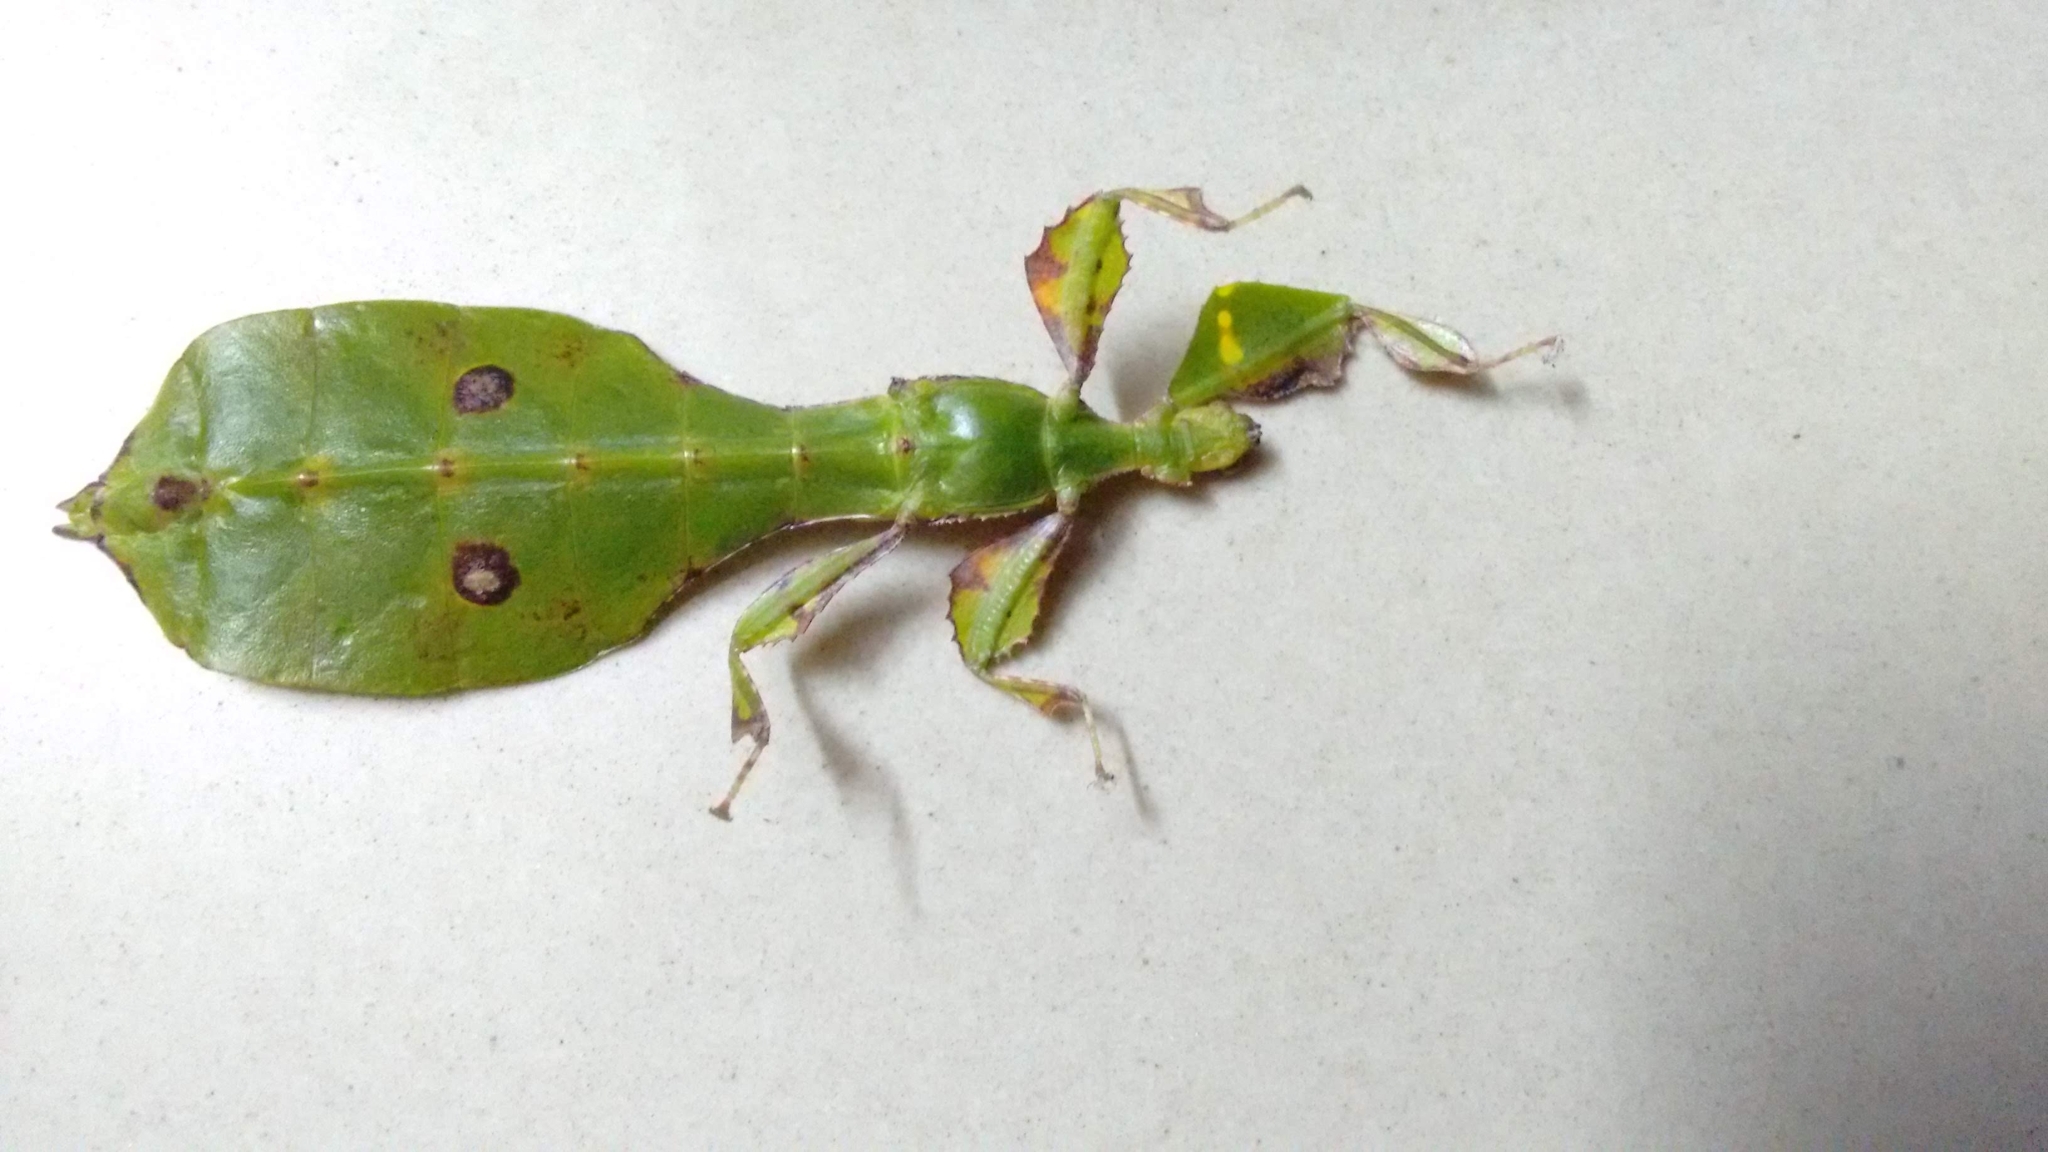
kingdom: Animalia
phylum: Arthropoda
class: Insecta
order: Phasmida
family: Phylliidae
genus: Pulchriphyllium
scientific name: Pulchriphyllium anangu
